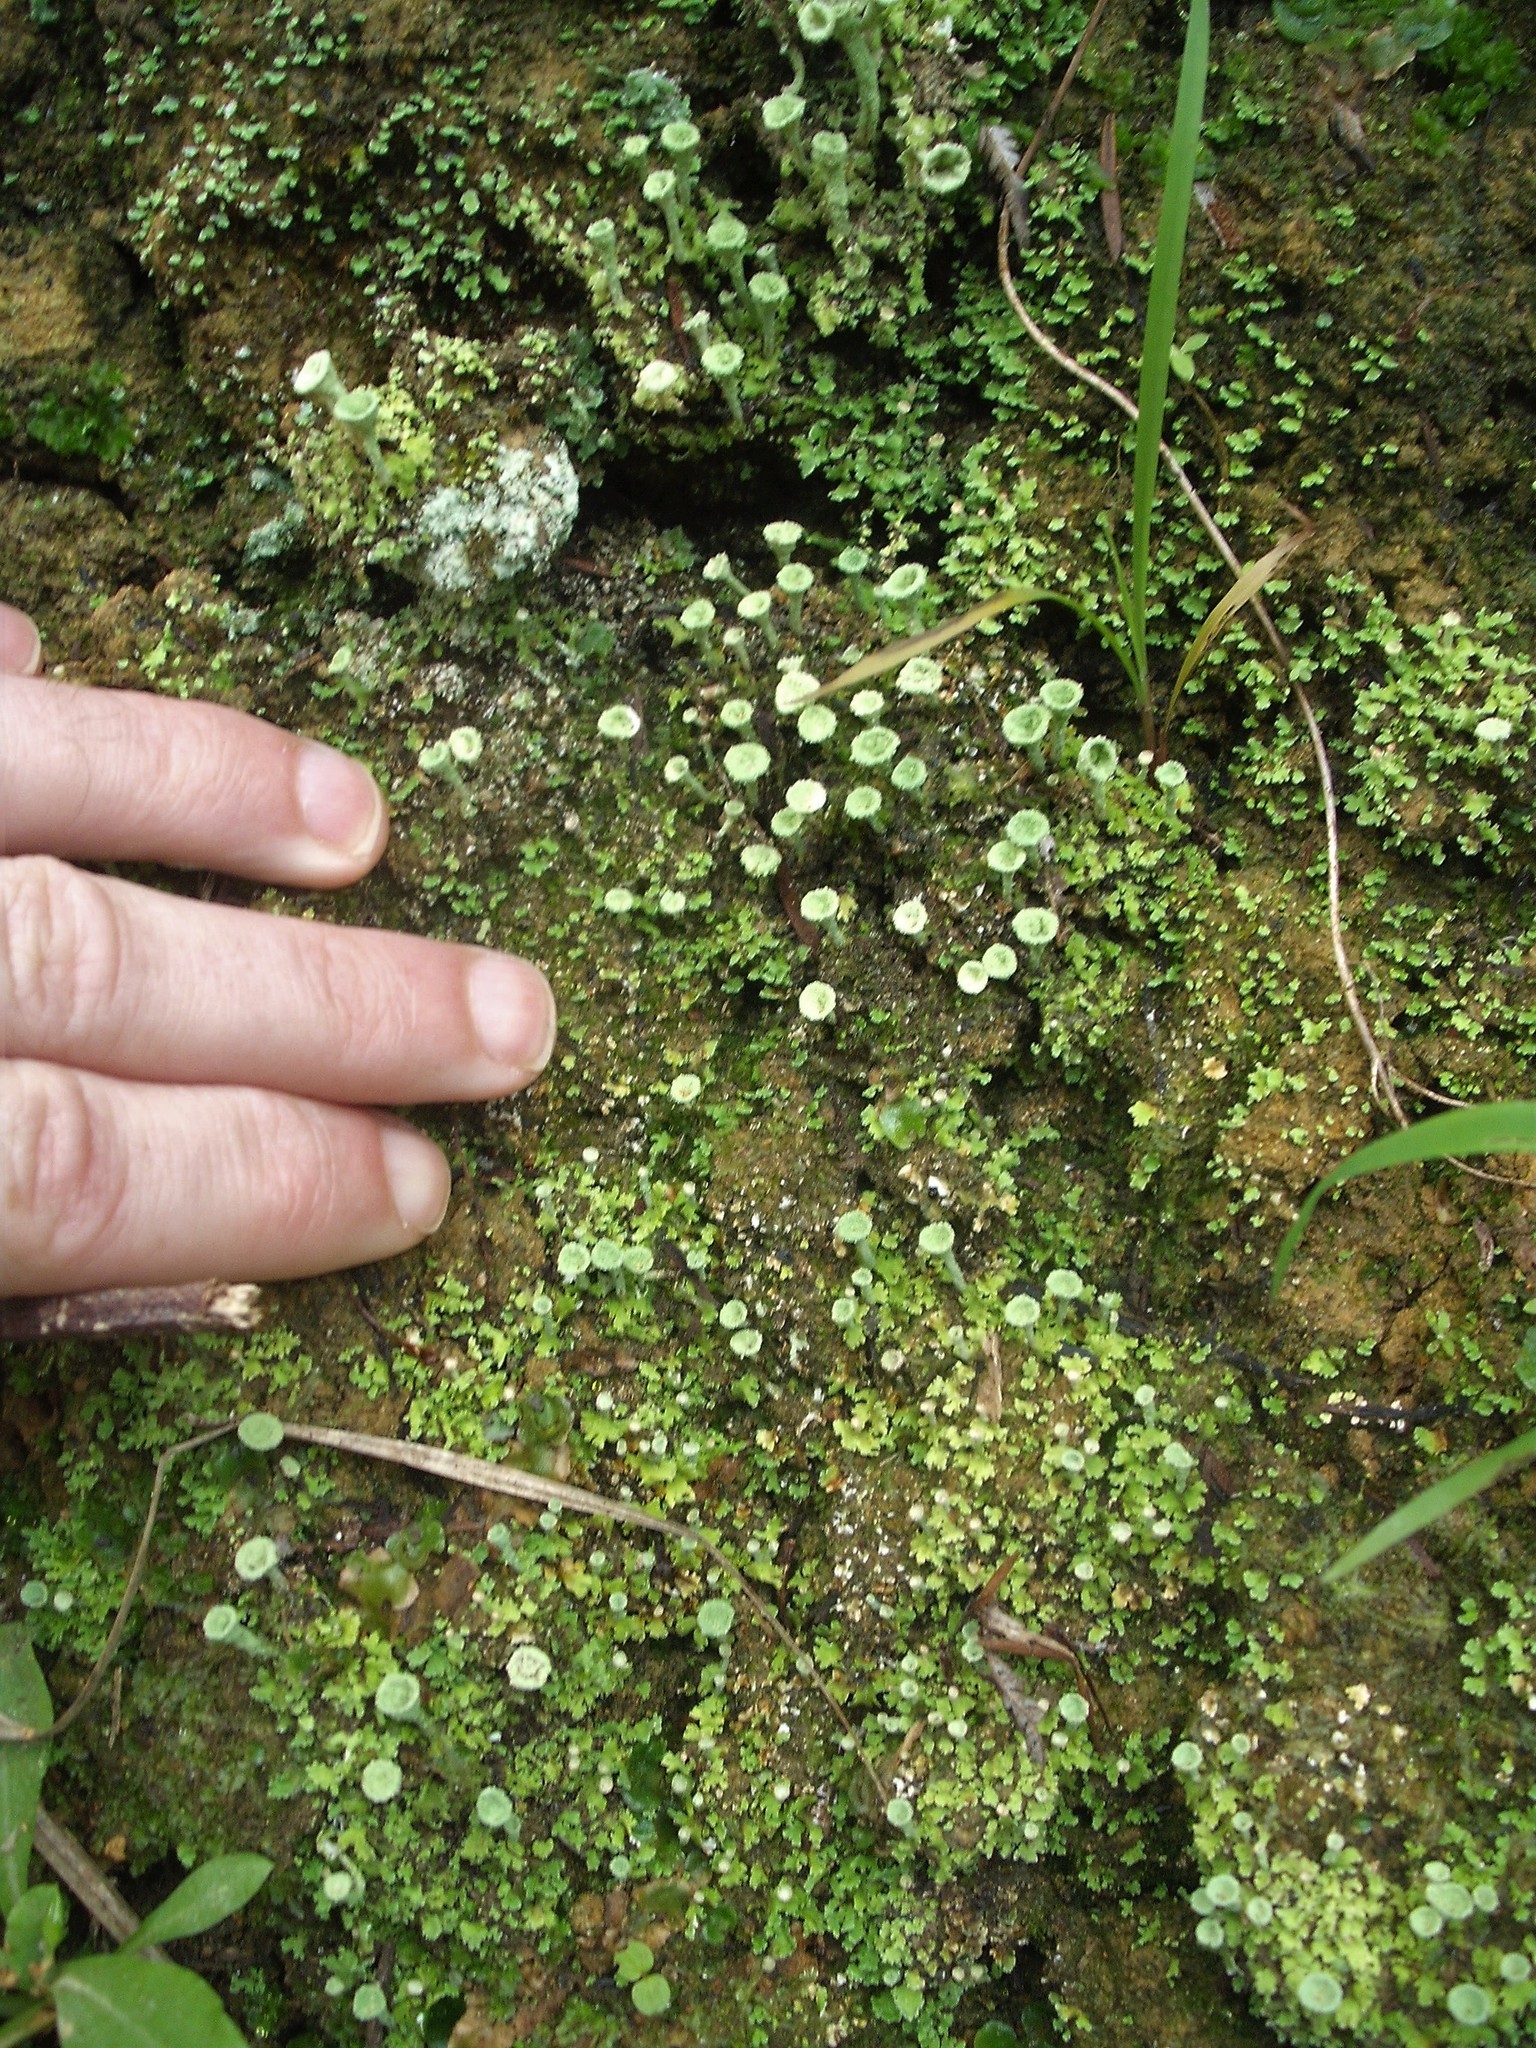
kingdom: Fungi
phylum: Ascomycota
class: Lecanoromycetes
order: Lecanorales
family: Cladoniaceae
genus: Cladonia
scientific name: Cladonia chlorophaea
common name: Mealy pixie cup
